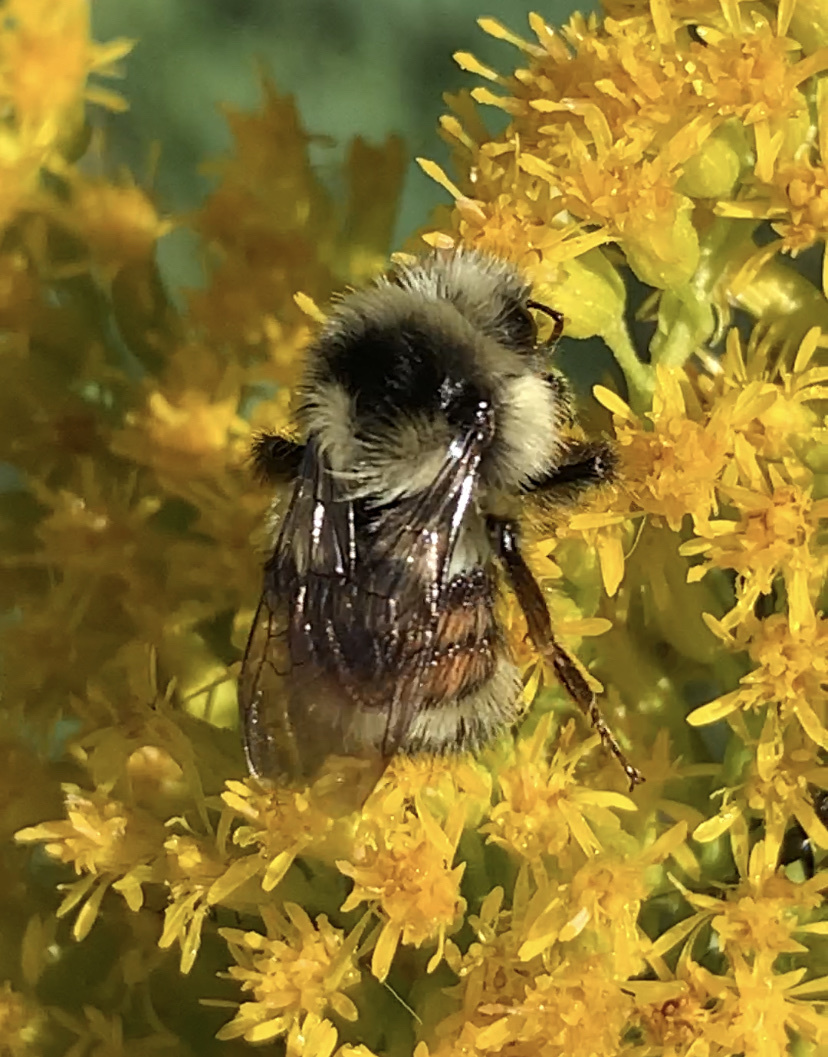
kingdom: Animalia
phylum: Arthropoda
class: Insecta
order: Hymenoptera
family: Apidae
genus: Bombus
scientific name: Bombus vancouverensis
